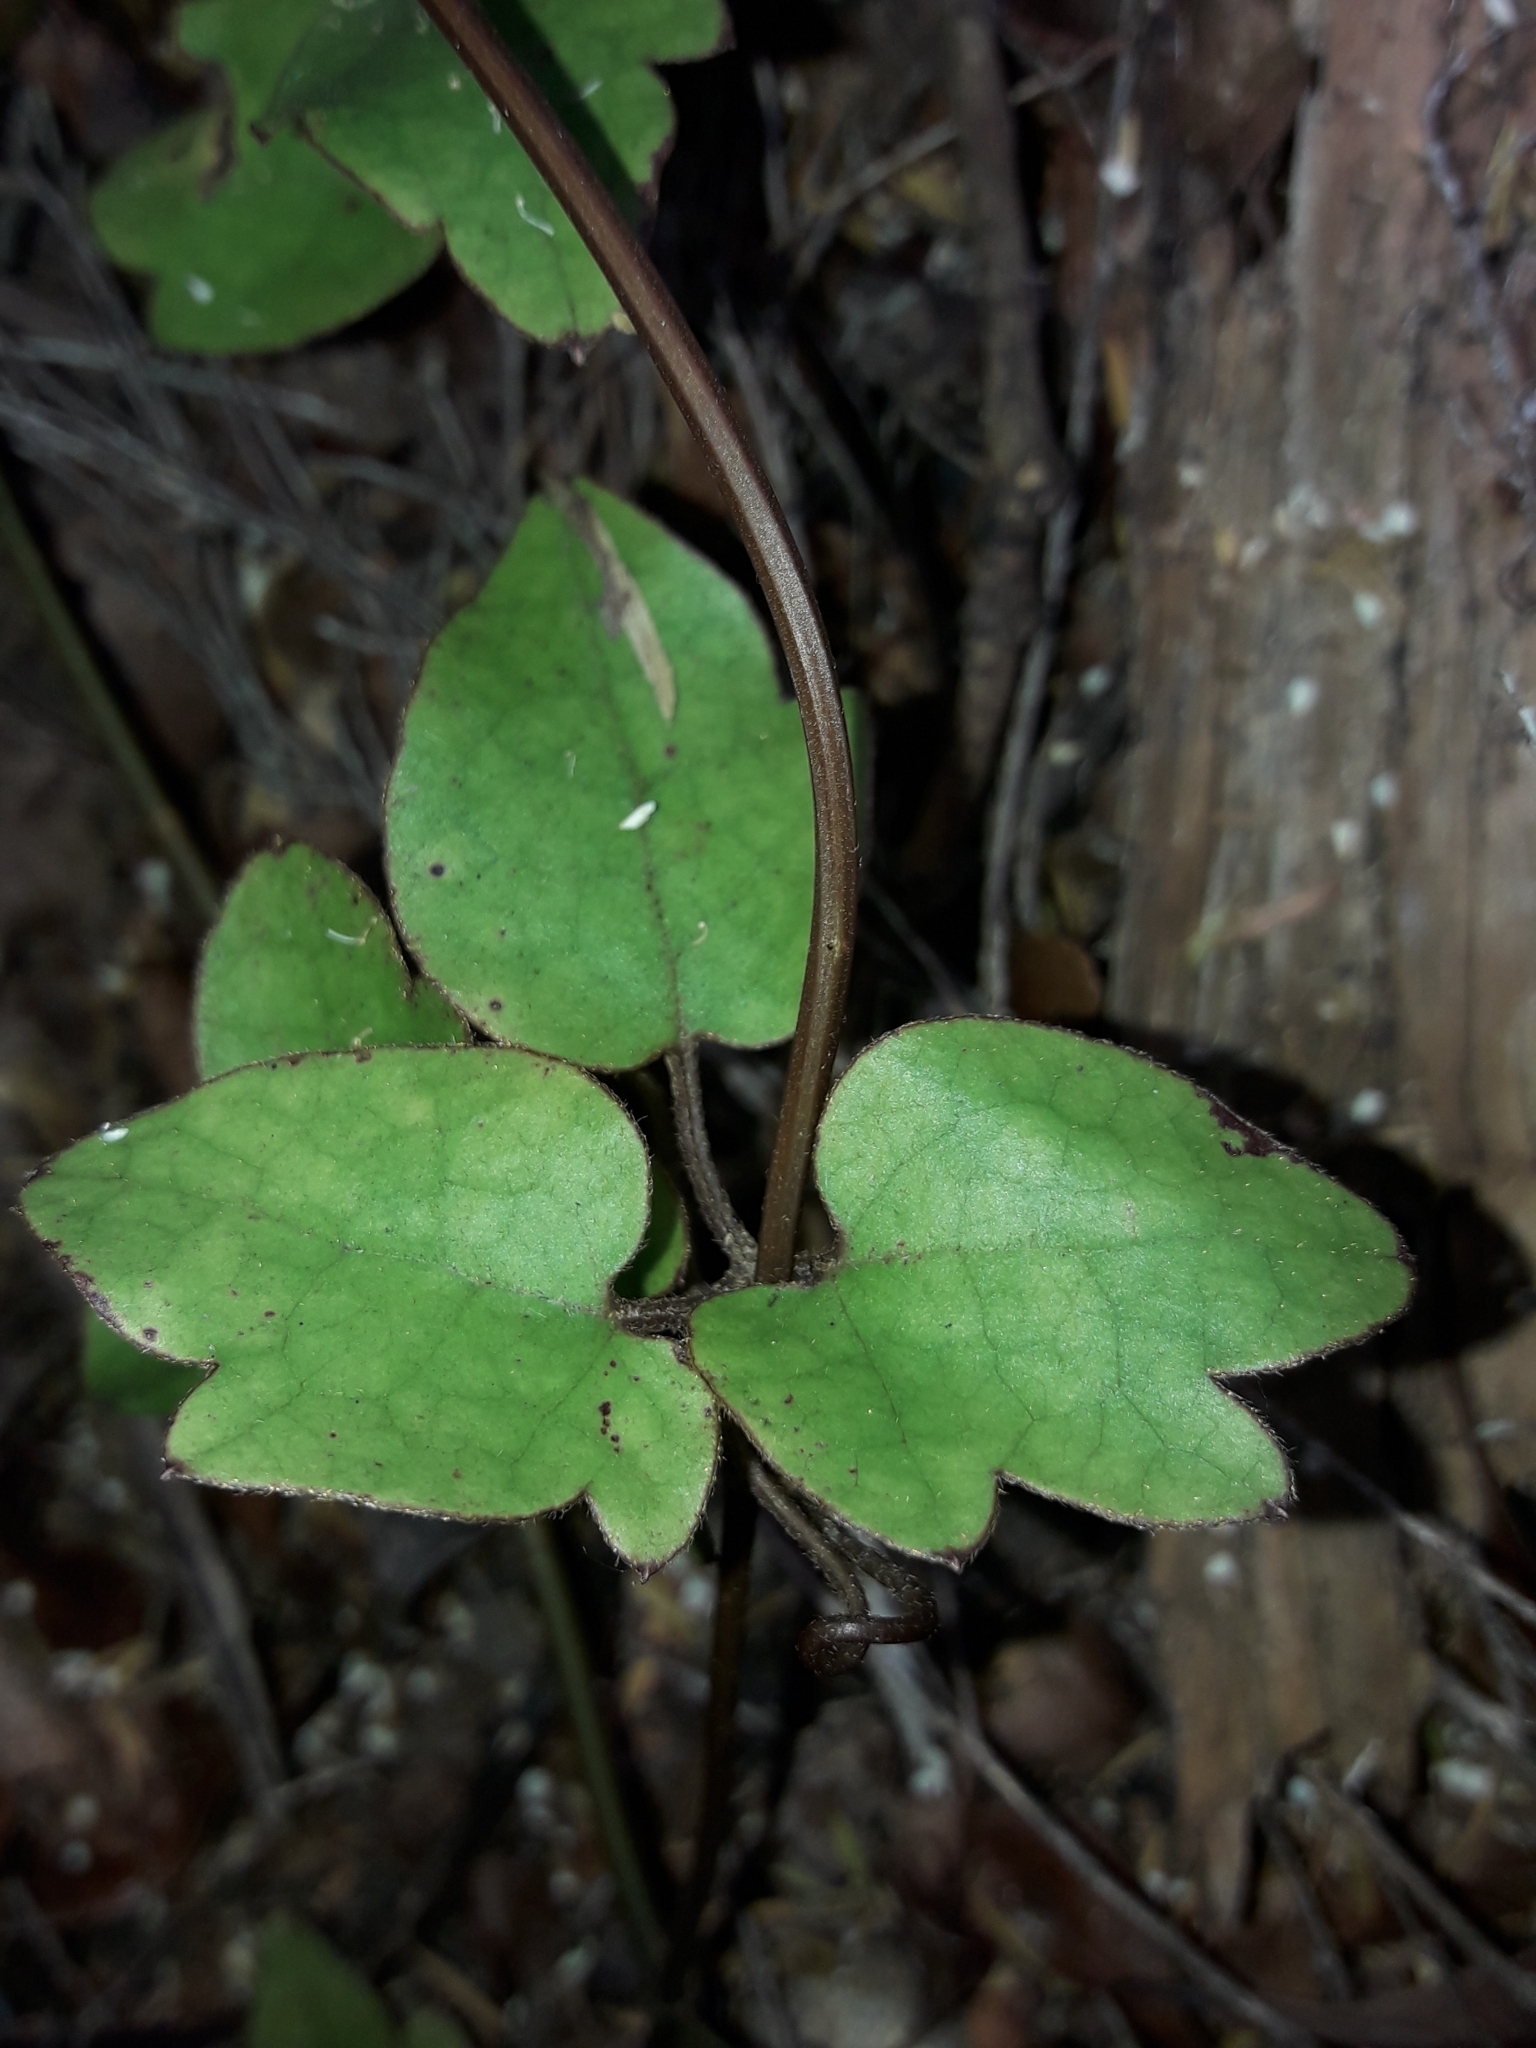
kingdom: Plantae
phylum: Tracheophyta
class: Magnoliopsida
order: Ranunculales
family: Ranunculaceae
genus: Clematis
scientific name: Clematis cunninghamii
